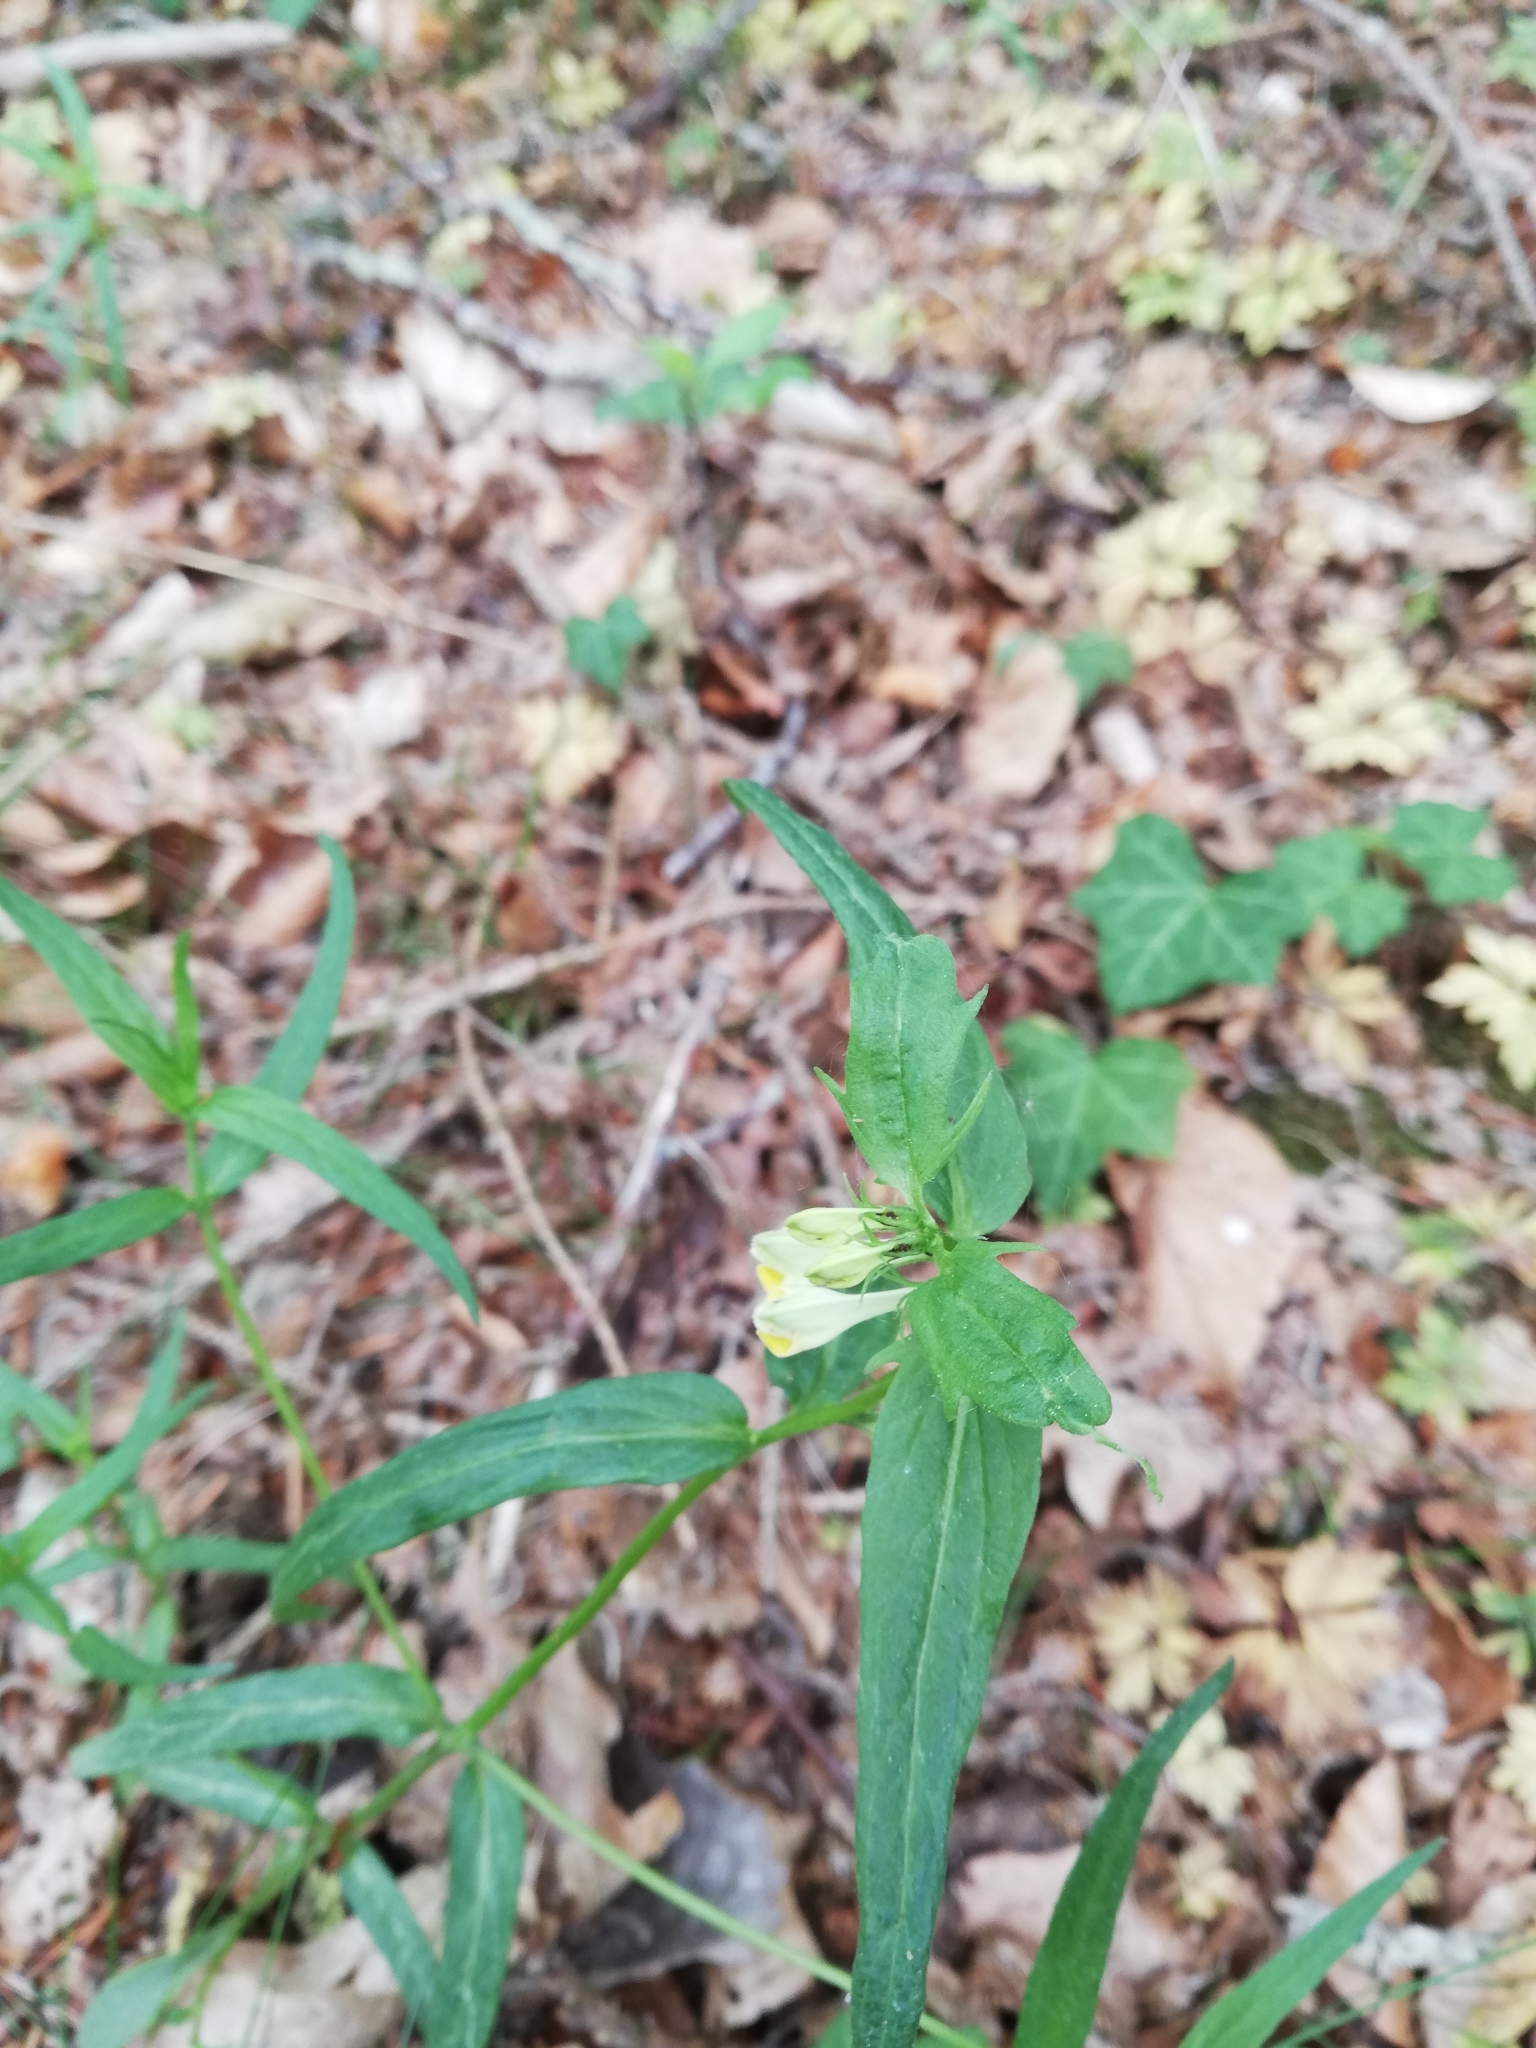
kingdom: Plantae
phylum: Tracheophyta
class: Magnoliopsida
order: Lamiales
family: Orobanchaceae
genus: Melampyrum
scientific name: Melampyrum pratense
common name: Common cow-wheat
